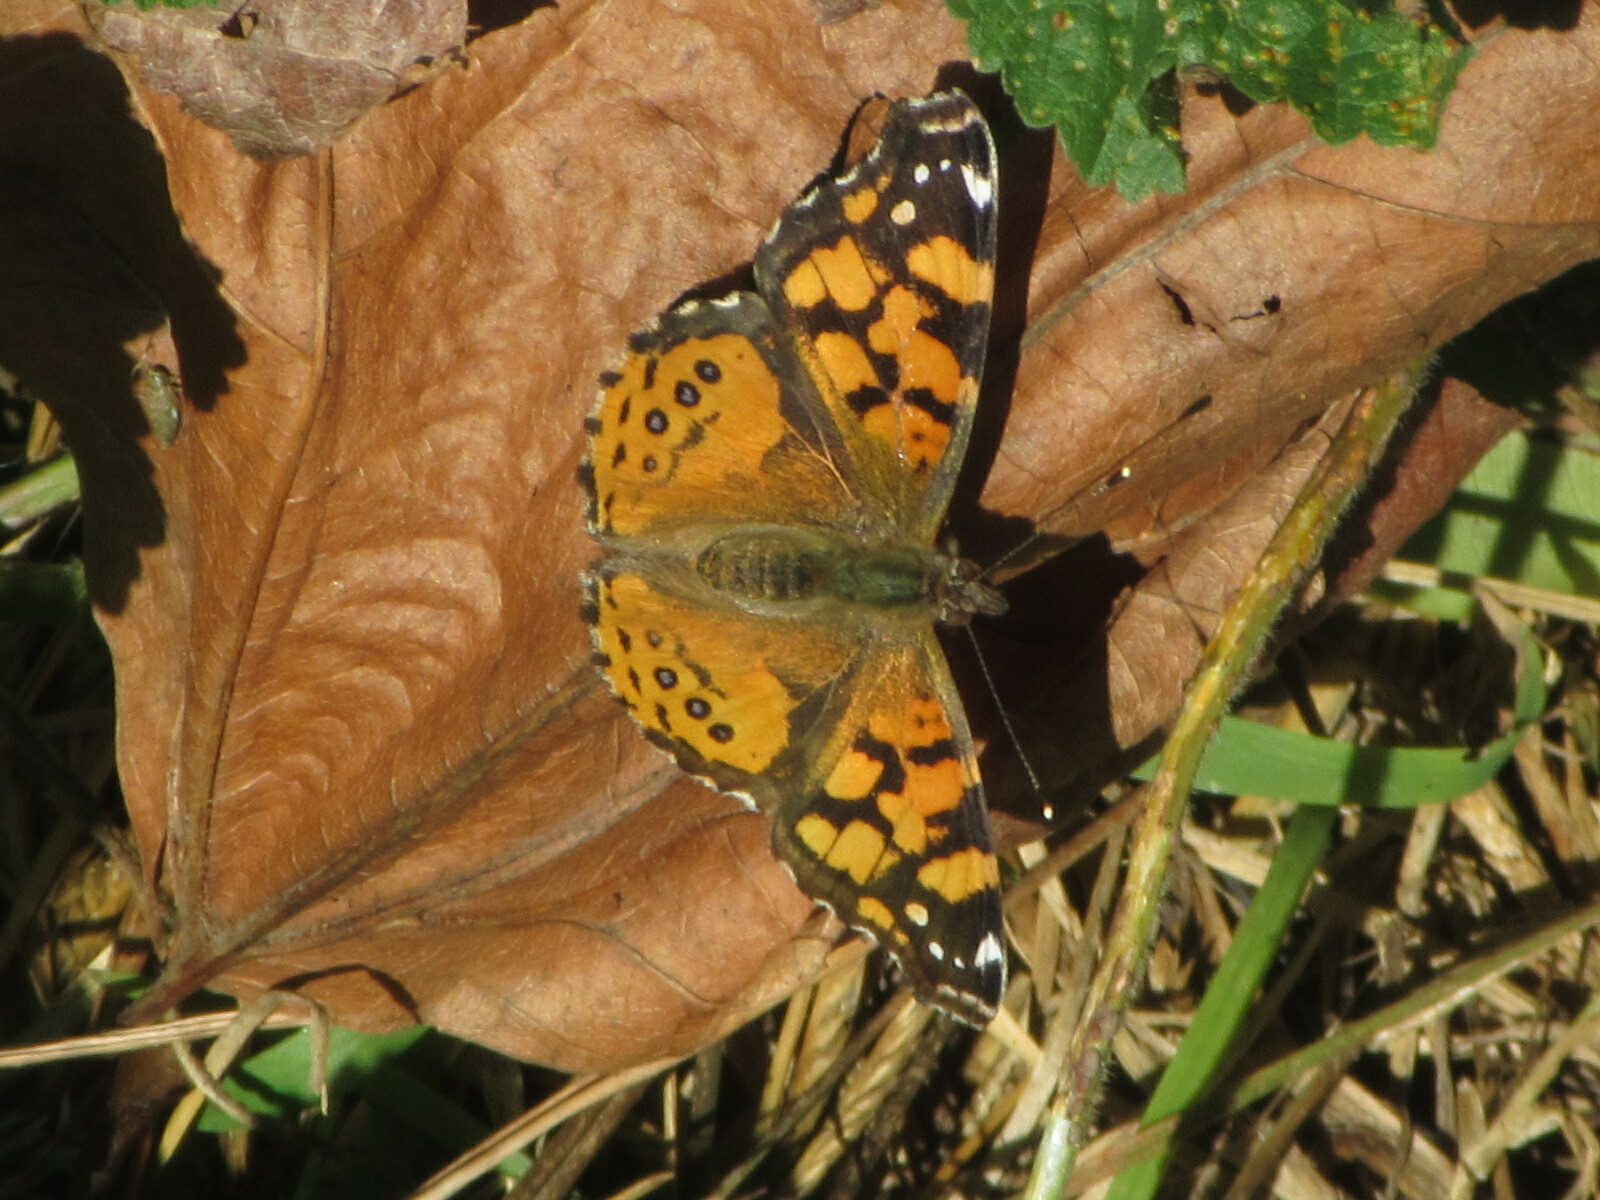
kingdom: Animalia
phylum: Arthropoda
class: Insecta
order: Lepidoptera
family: Nymphalidae
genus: Vanessa
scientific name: Vanessa annabella
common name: West coast lady
